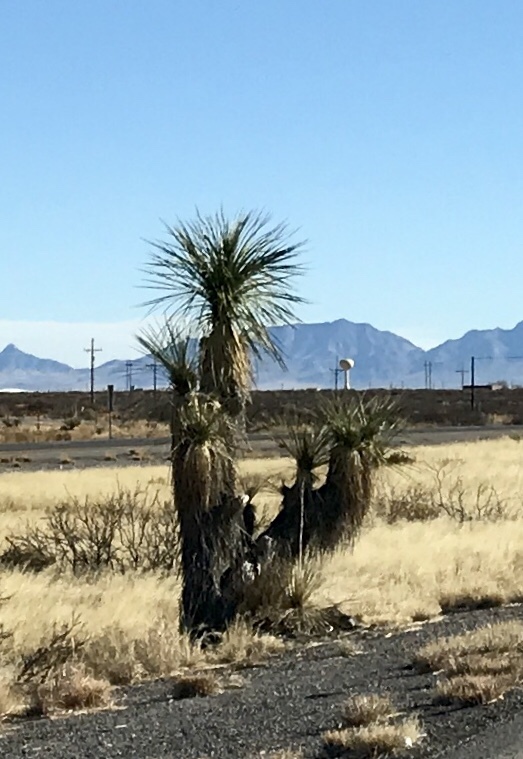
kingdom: Plantae
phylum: Tracheophyta
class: Liliopsida
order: Asparagales
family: Asparagaceae
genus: Yucca
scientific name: Yucca elata
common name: Palmella
